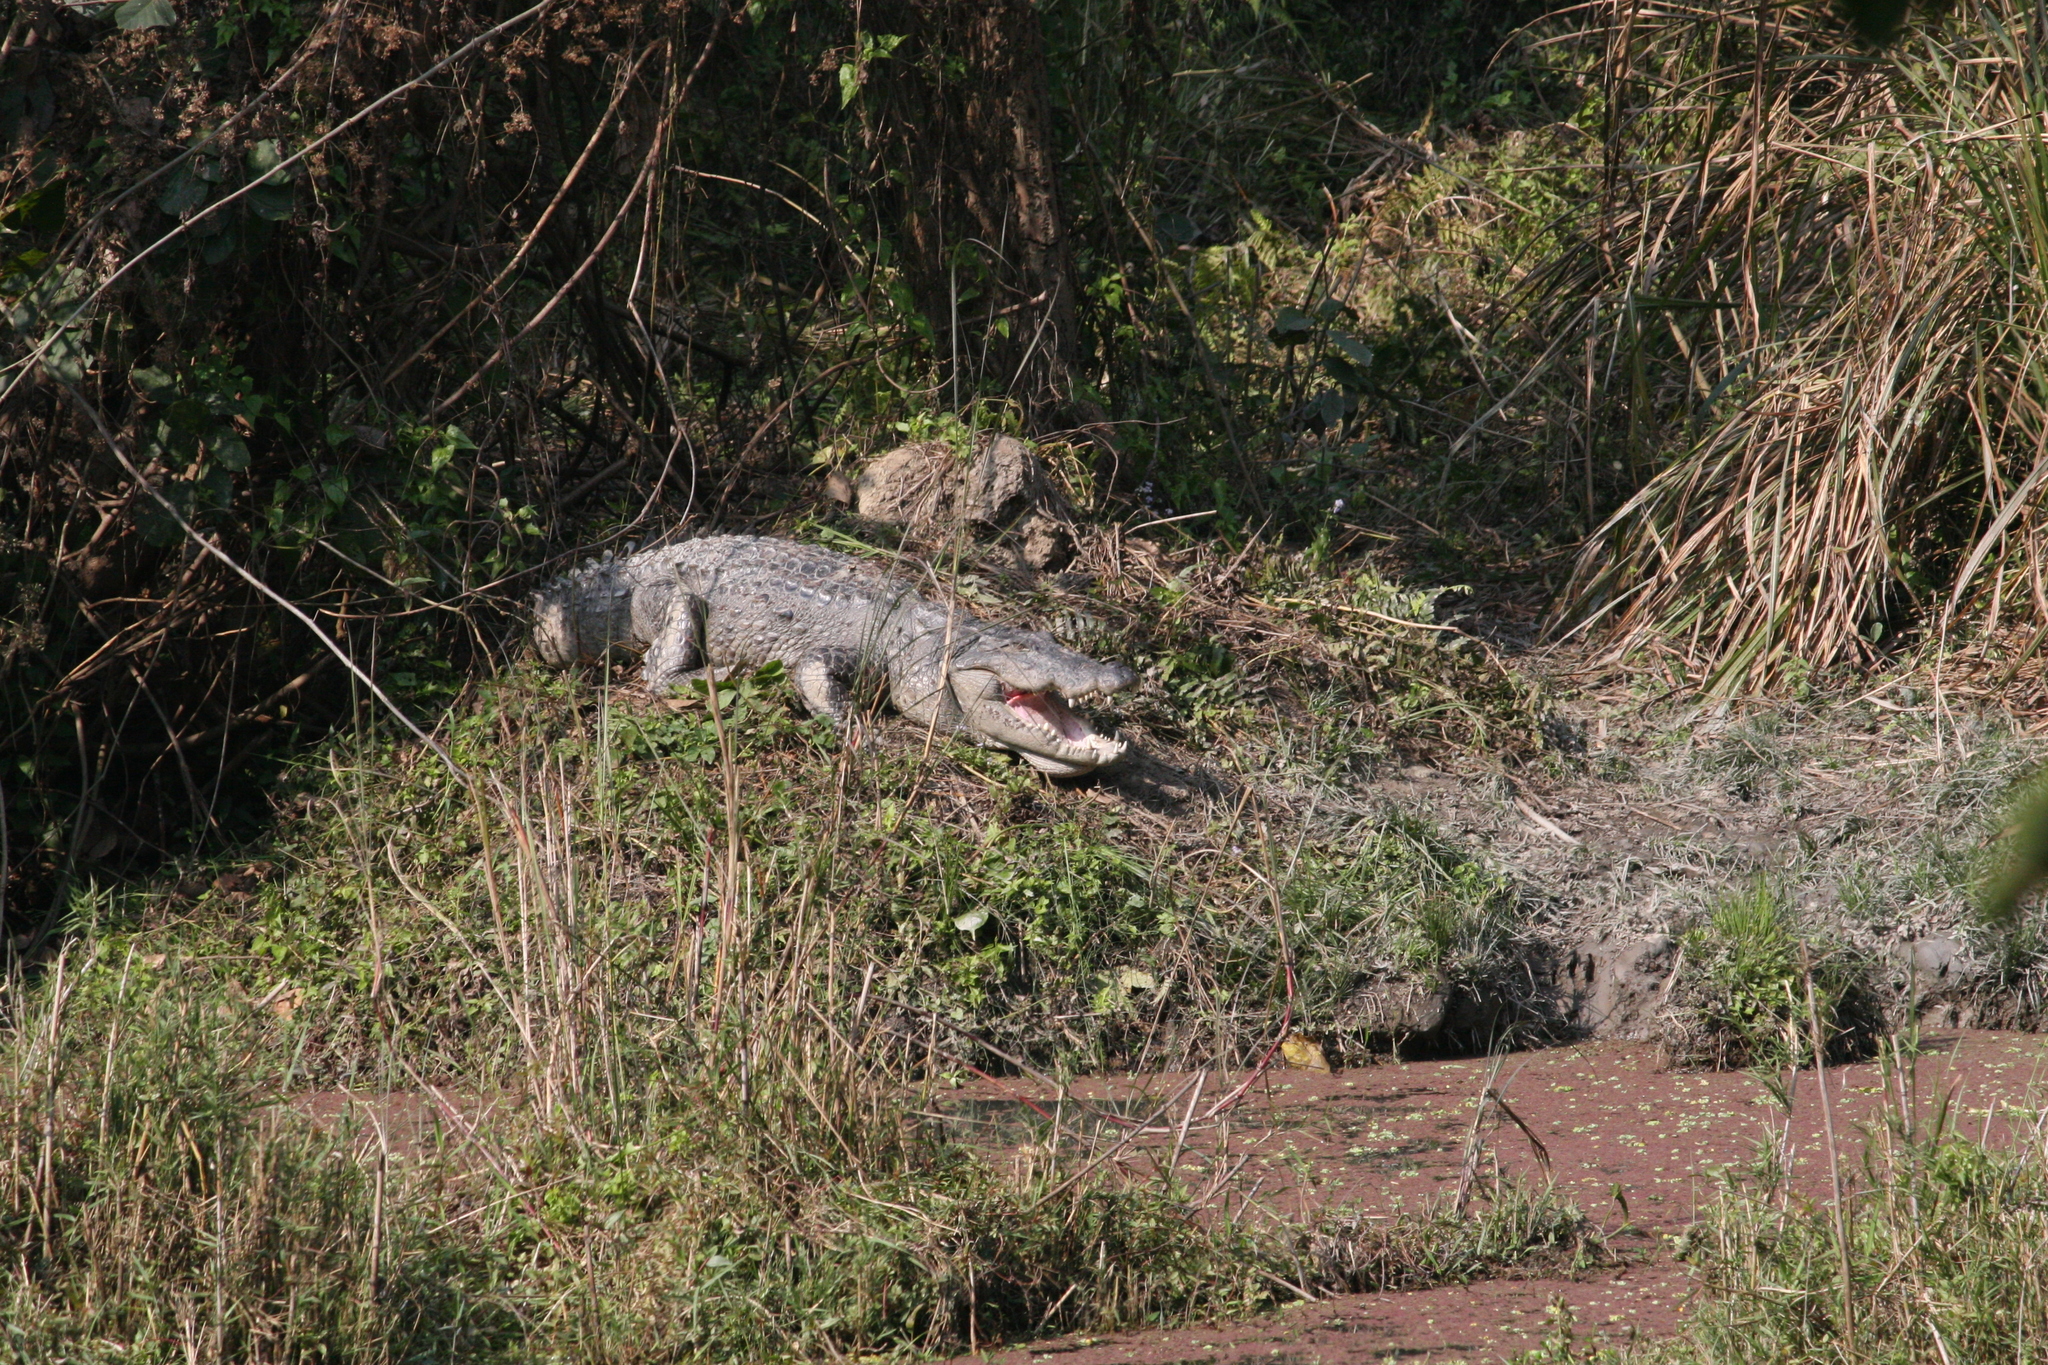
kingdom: Animalia
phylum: Chordata
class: Crocodylia
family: Crocodylidae
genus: Crocodylus
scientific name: Crocodylus palustris
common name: Mugger crocodile
